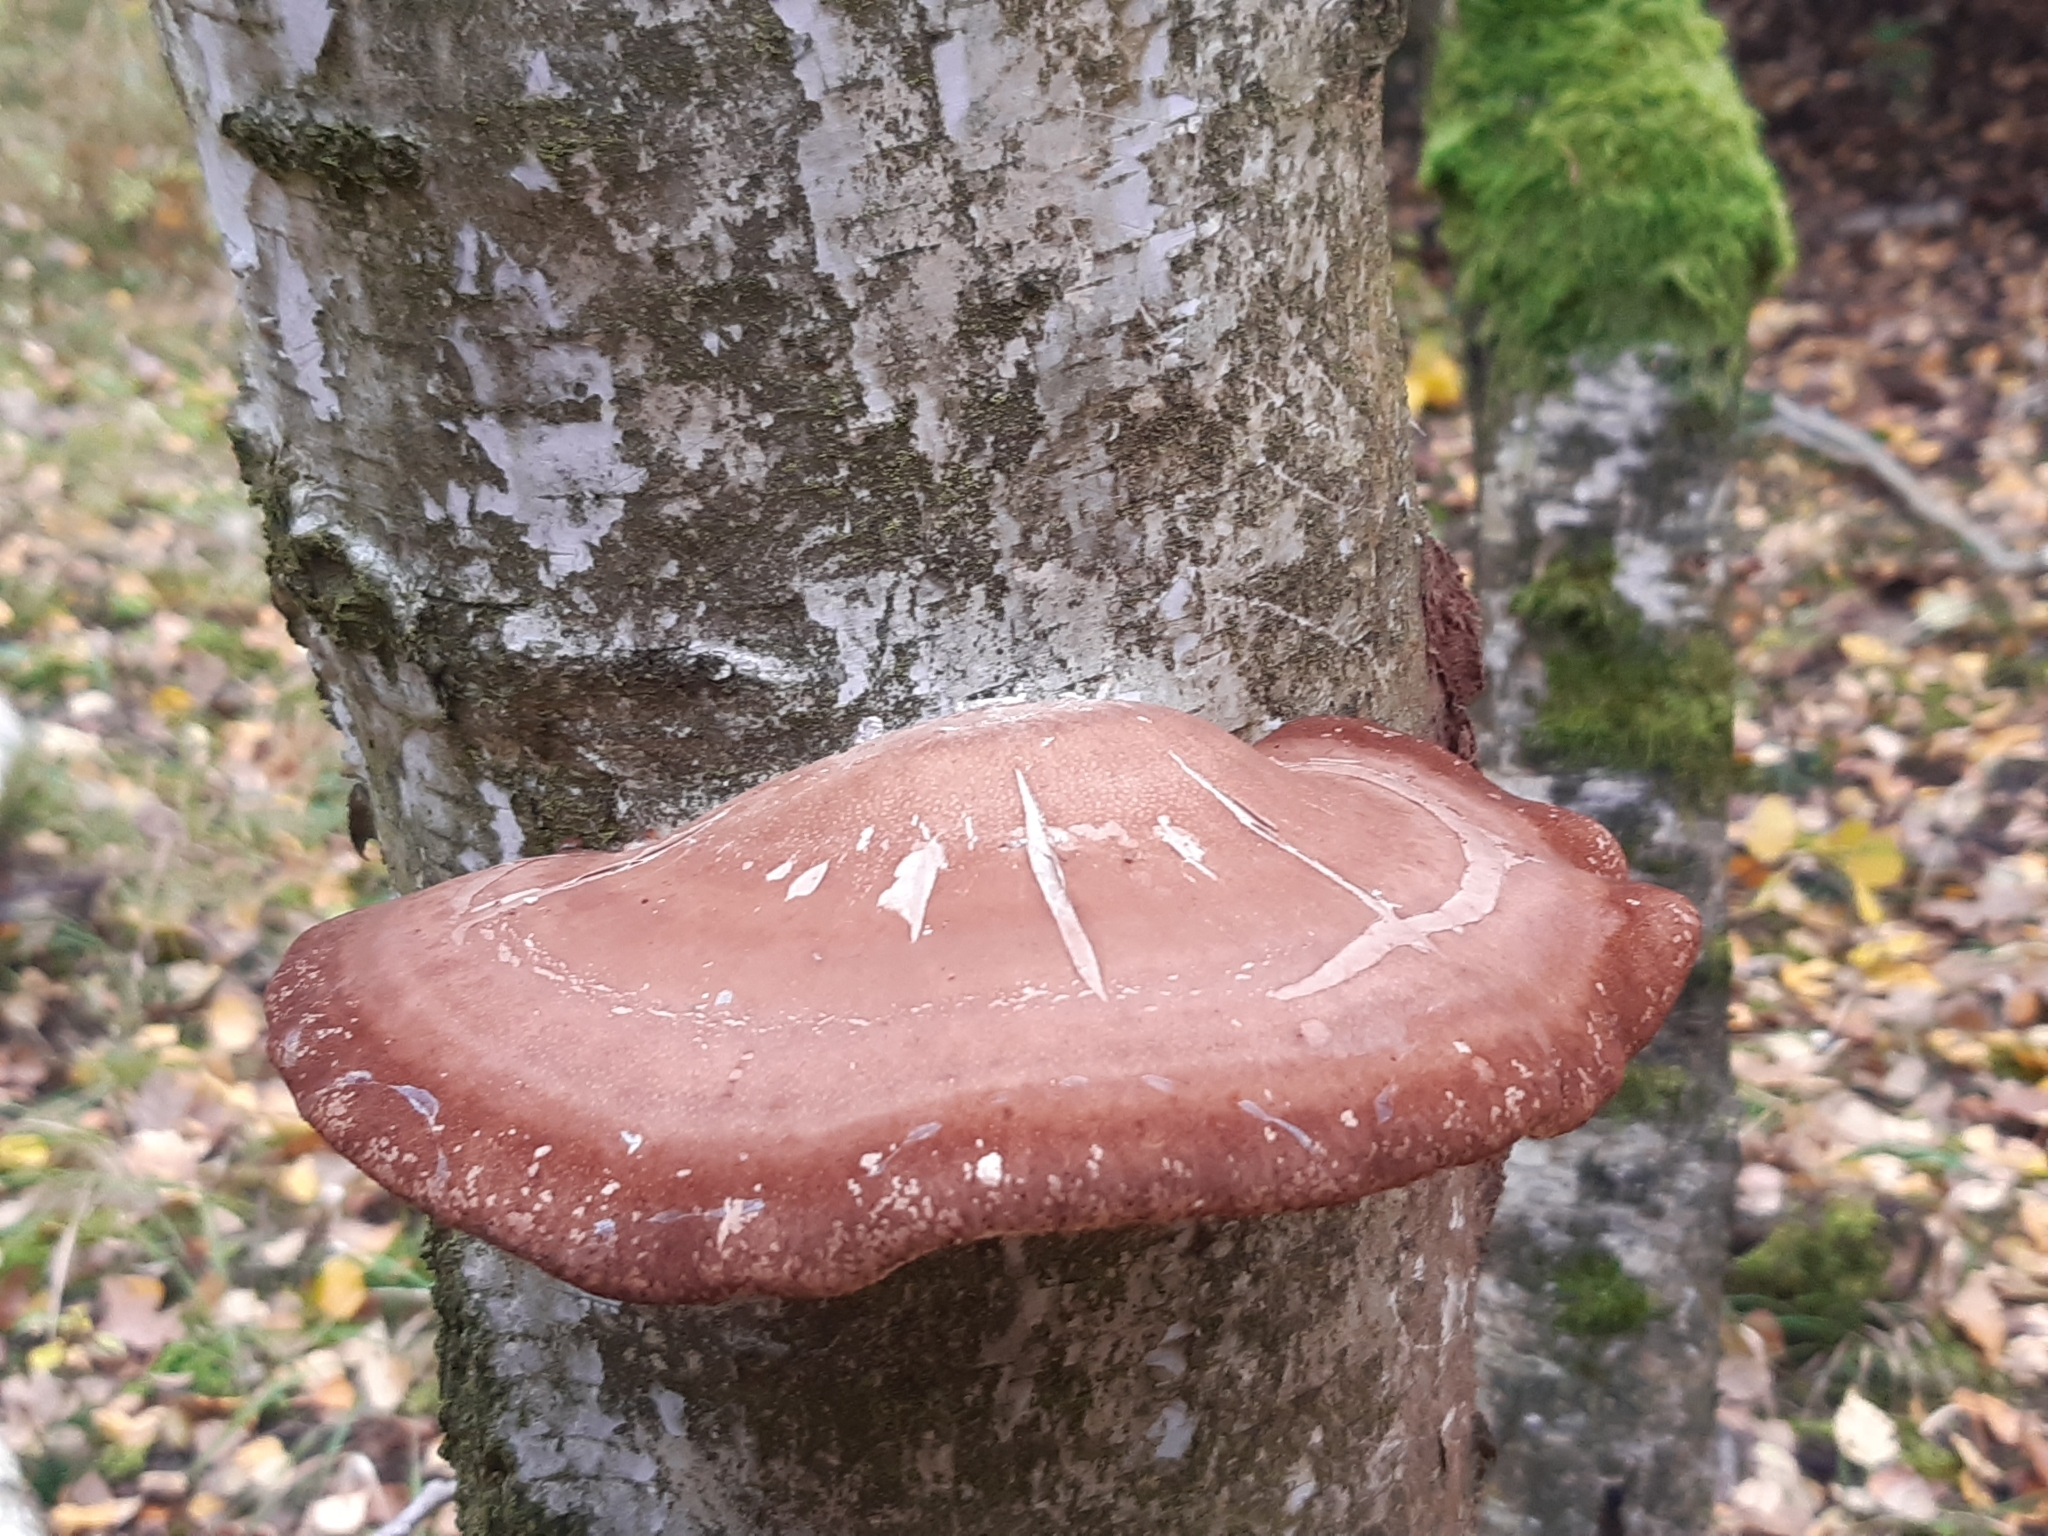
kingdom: Fungi
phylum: Basidiomycota
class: Agaricomycetes
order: Polyporales
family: Fomitopsidaceae
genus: Fomitopsis
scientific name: Fomitopsis betulina
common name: Birch polypore
